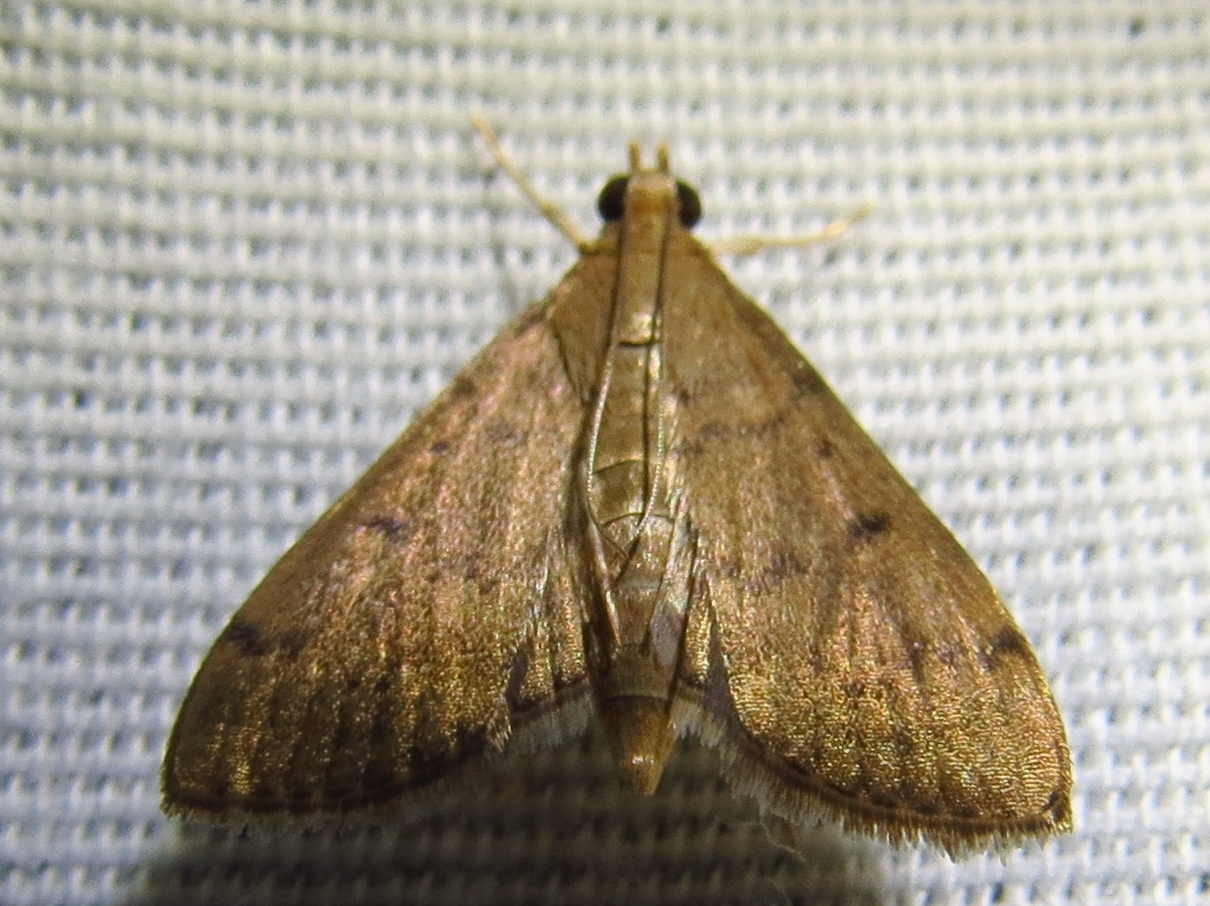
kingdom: Animalia
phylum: Arthropoda
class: Insecta
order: Lepidoptera
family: Crambidae
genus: Herpetogramma
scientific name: Herpetogramma phaeopteralis
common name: Dusky herpetogramma moth
